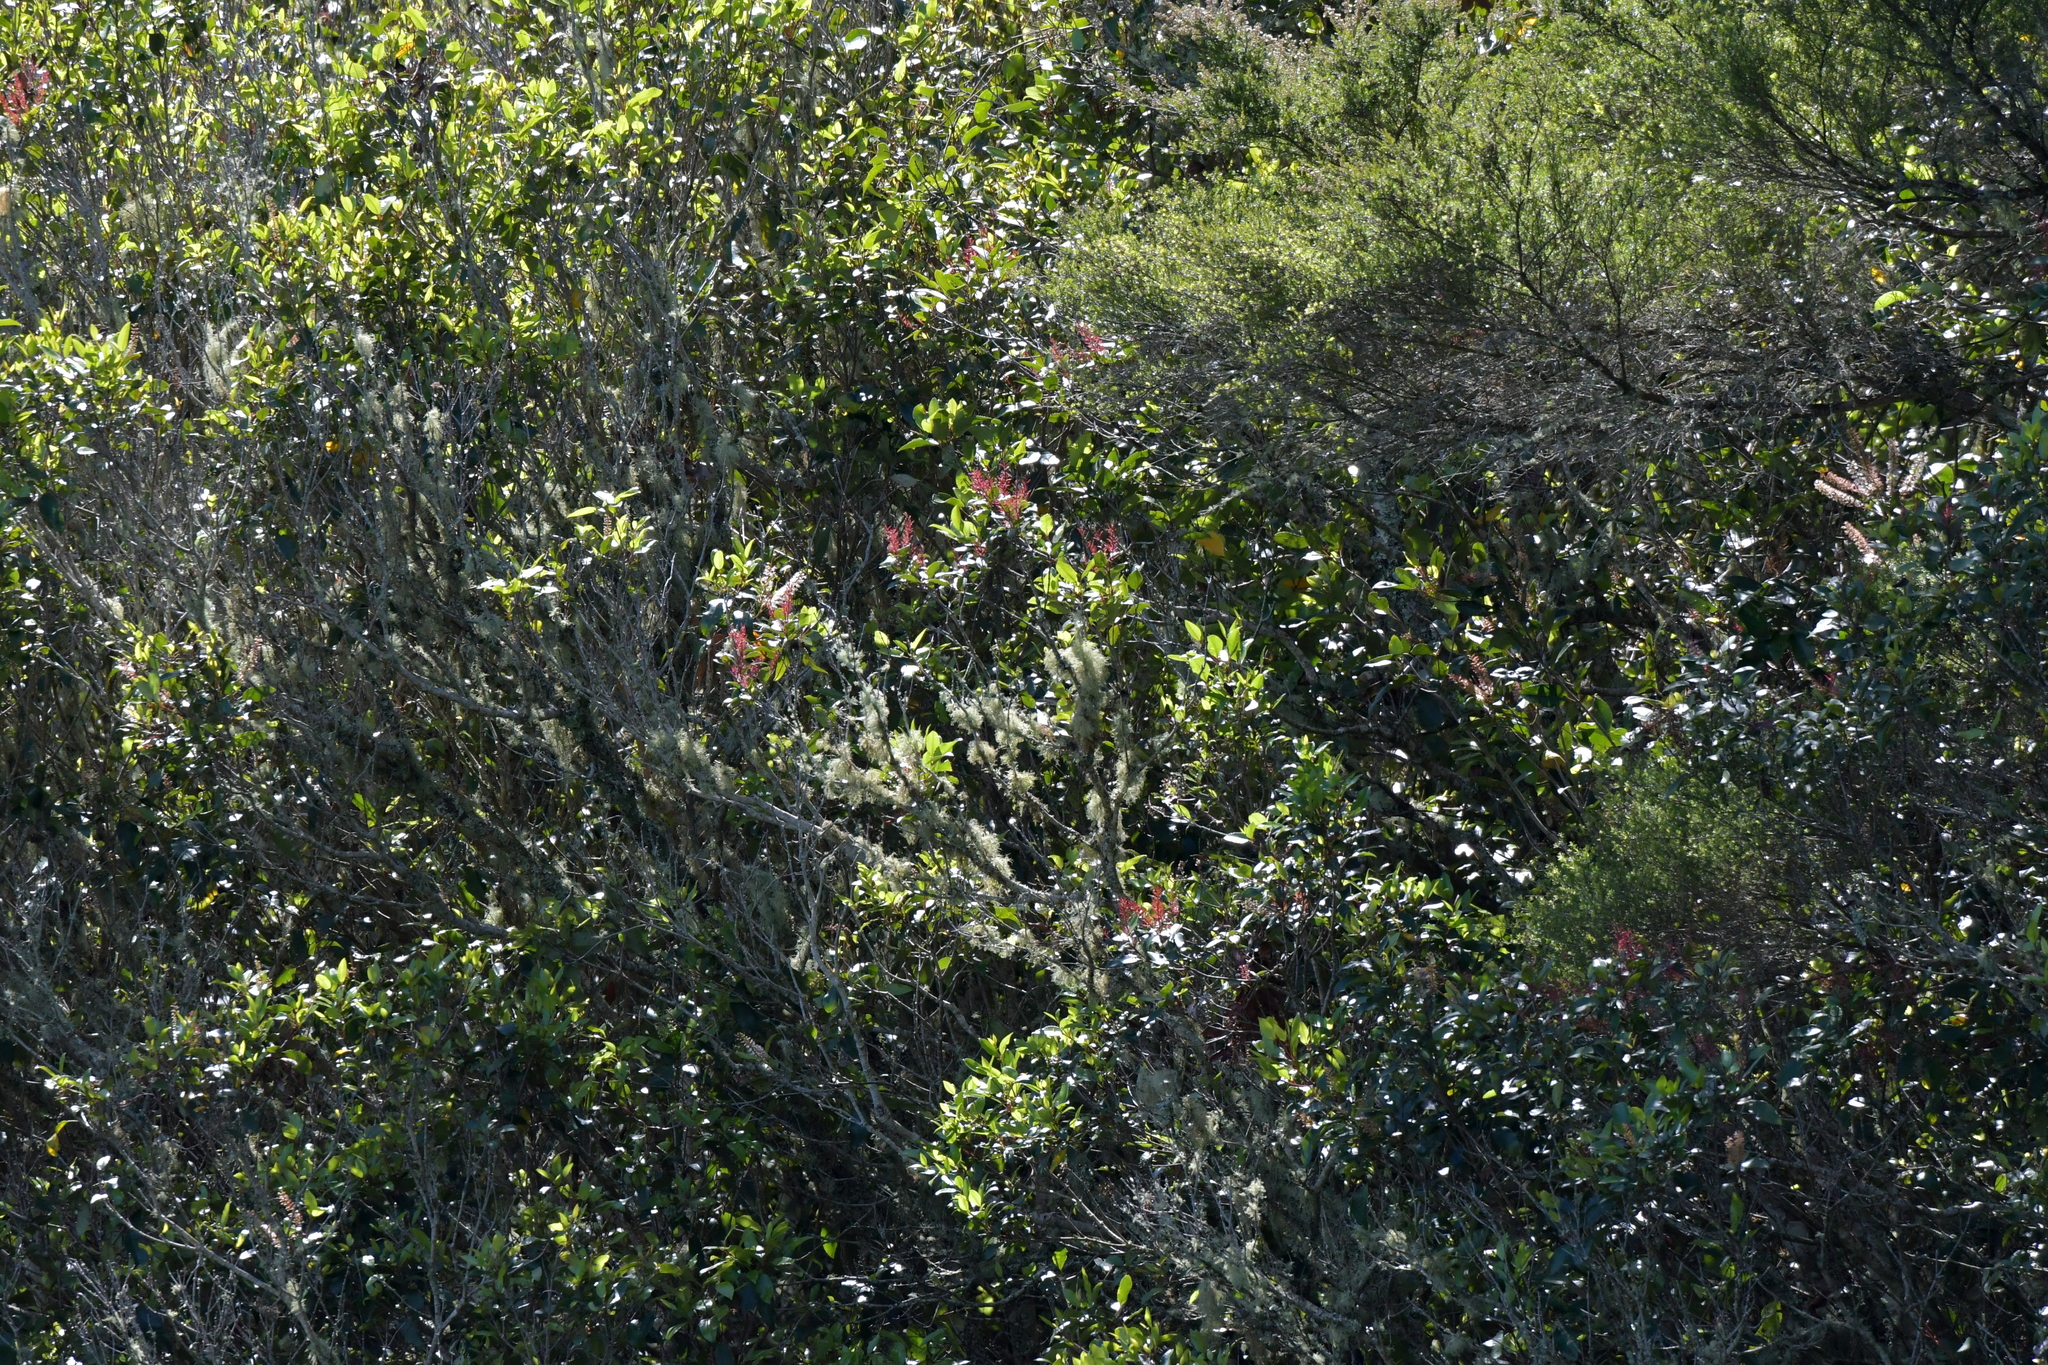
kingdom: Plantae
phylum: Tracheophyta
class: Magnoliopsida
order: Oxalidales
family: Cunoniaceae
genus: Pterophylla
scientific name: Pterophylla racemosa
